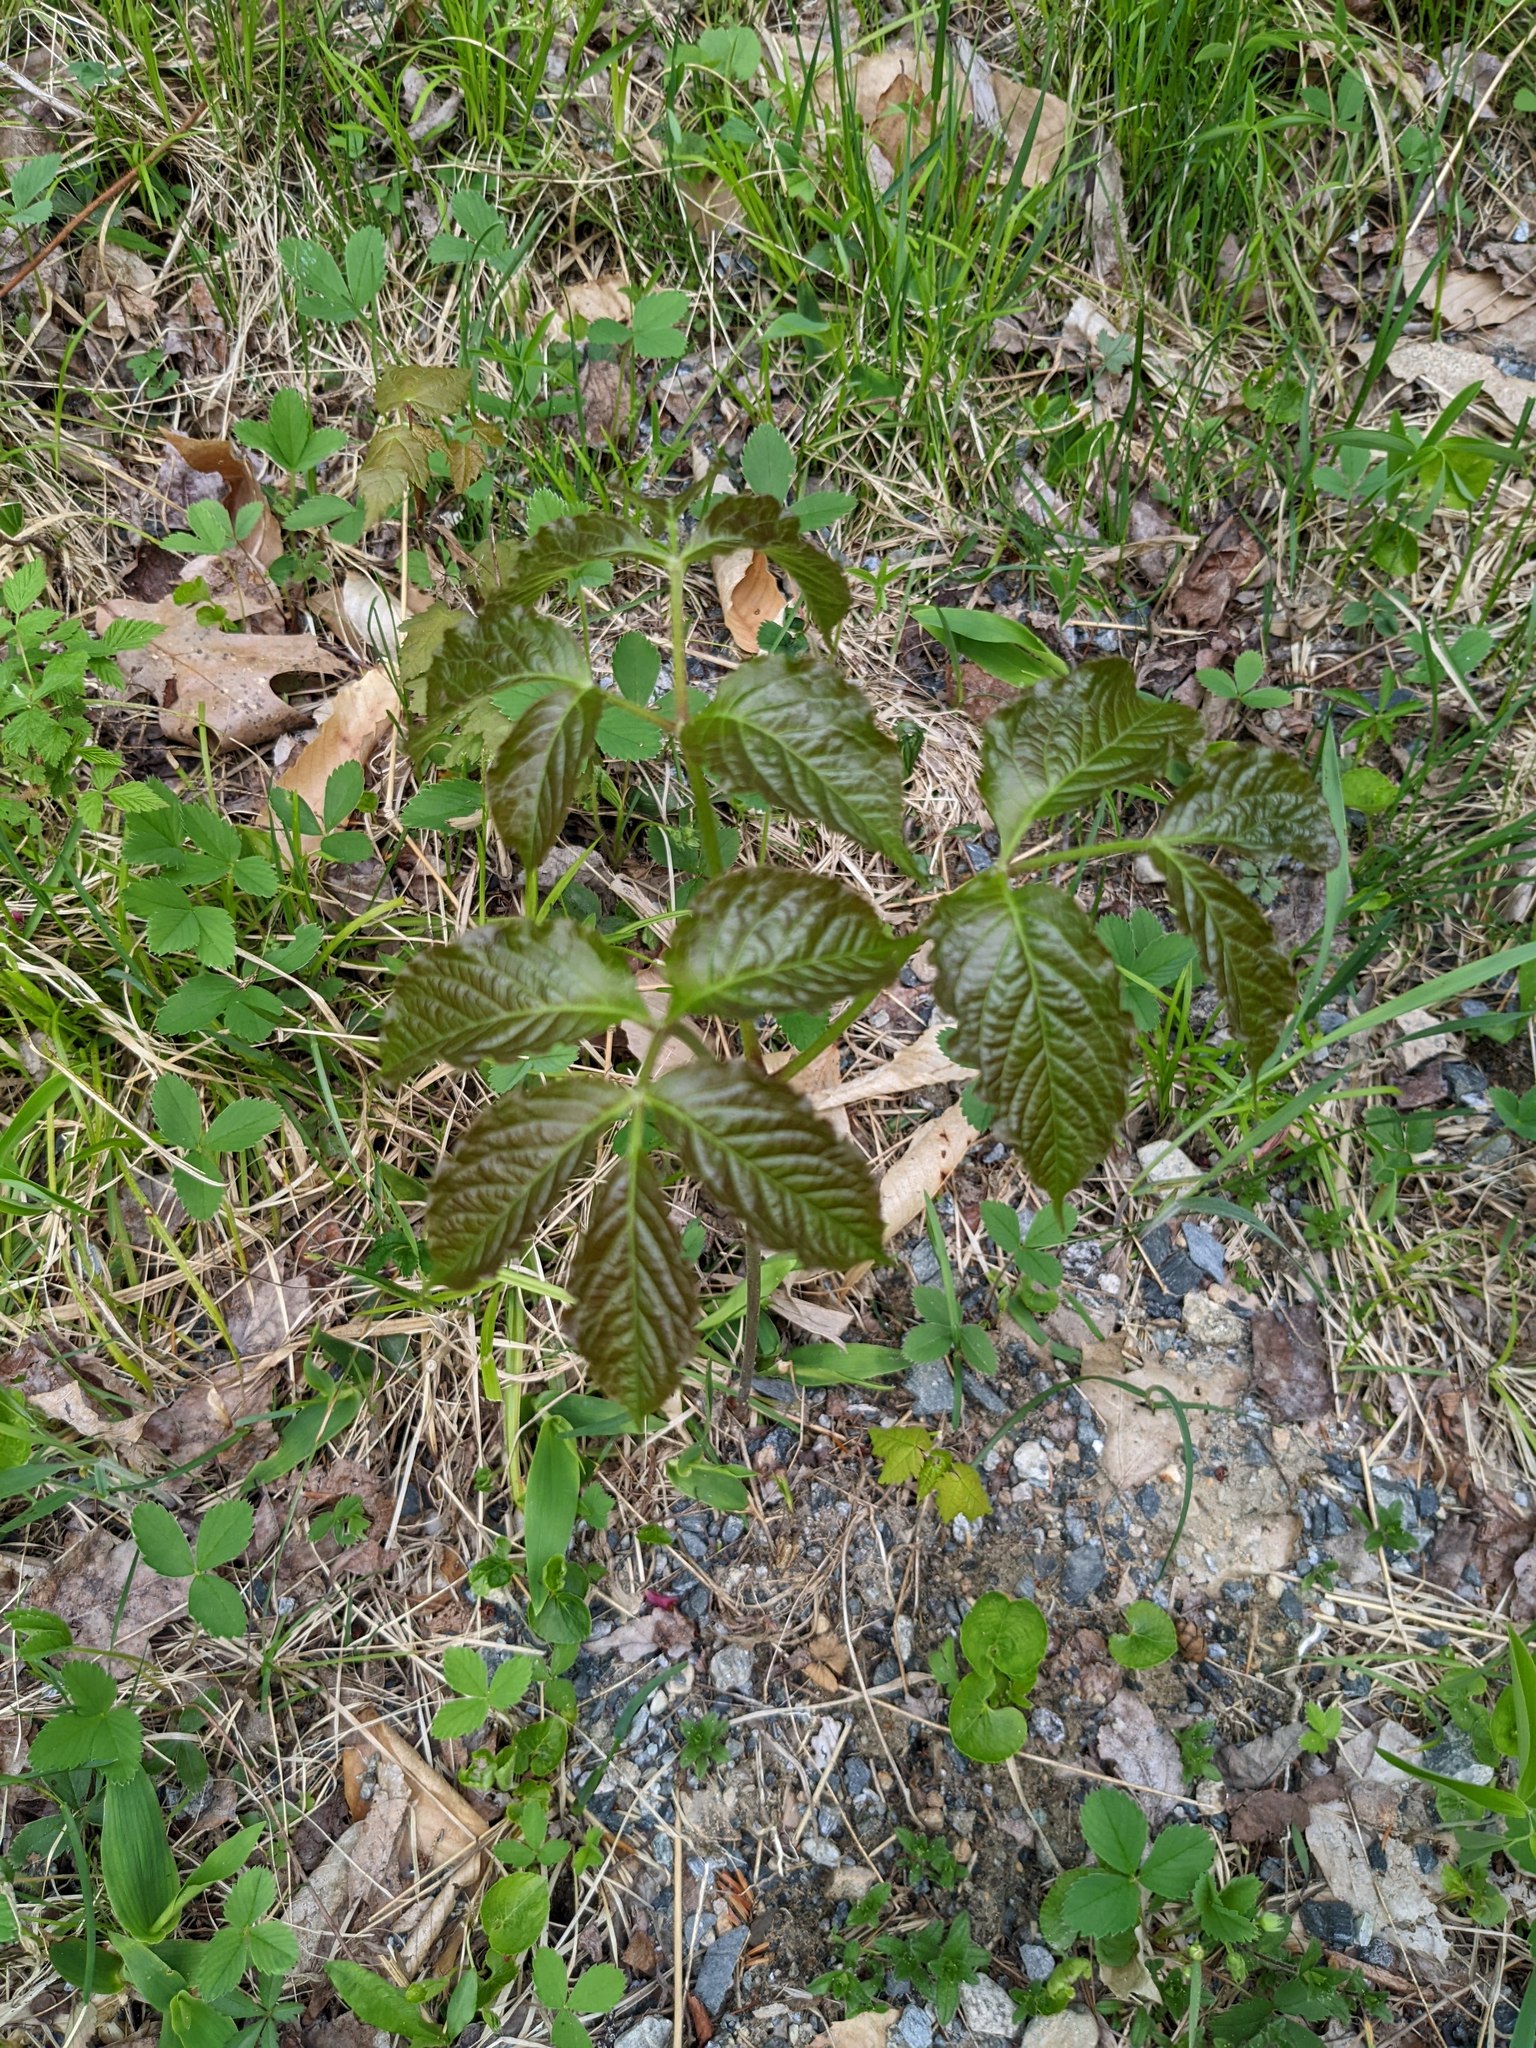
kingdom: Plantae
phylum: Tracheophyta
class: Magnoliopsida
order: Apiales
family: Araliaceae
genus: Aralia
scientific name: Aralia nudicaulis
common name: Wild sarsaparilla
